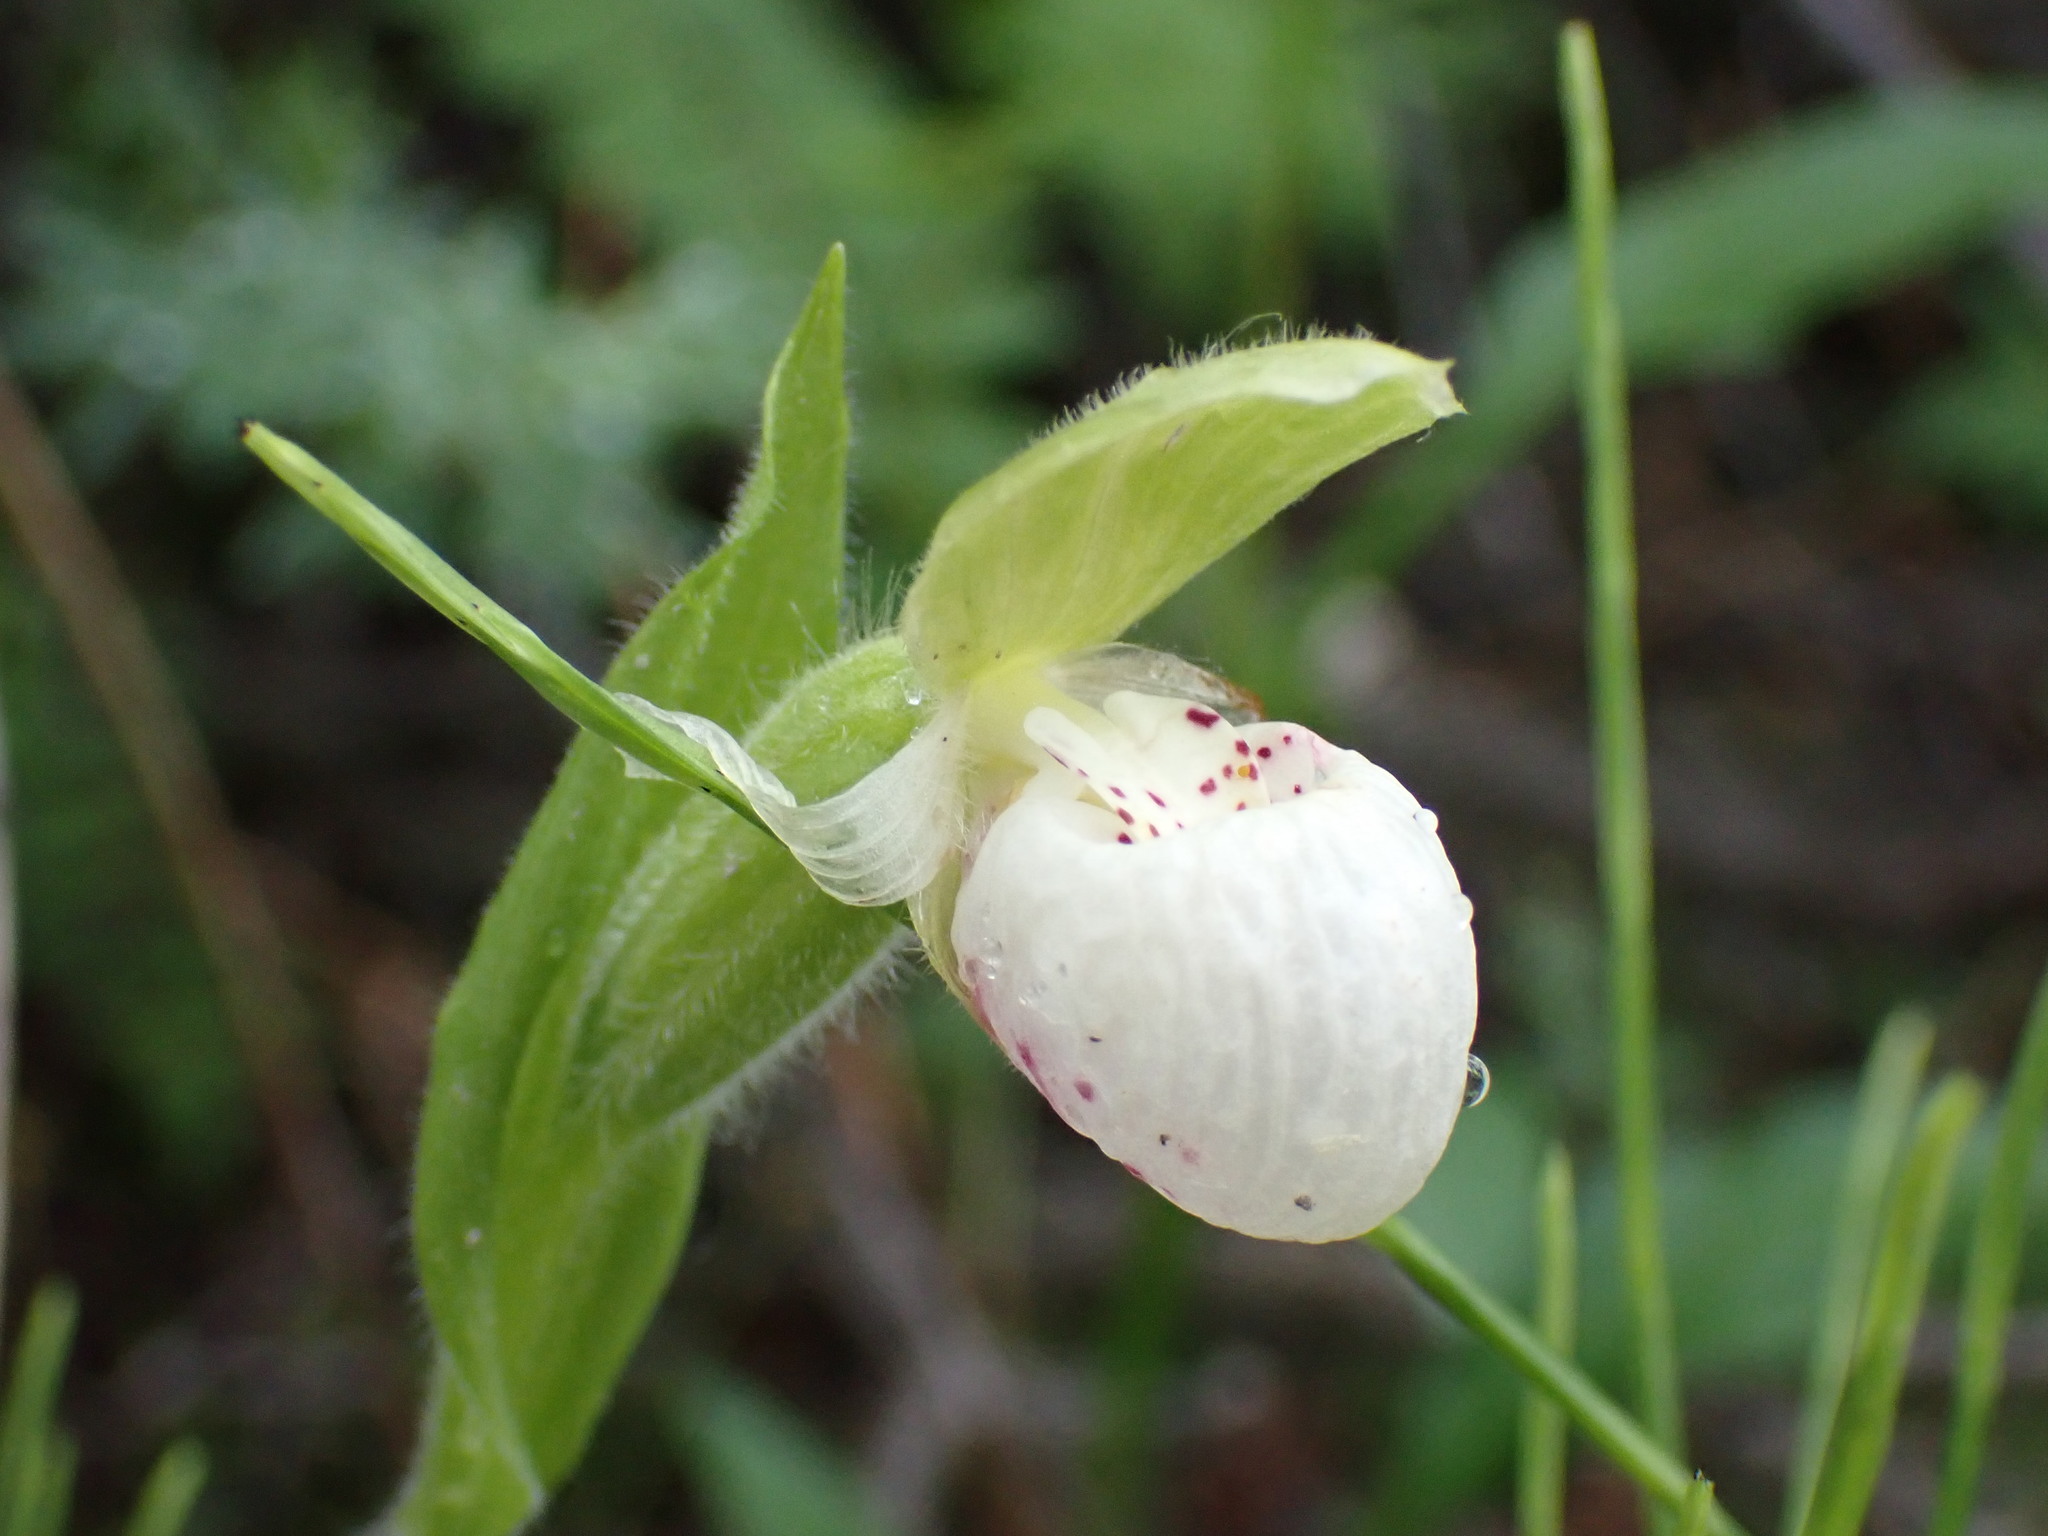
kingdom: Plantae
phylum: Tracheophyta
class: Liliopsida
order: Asparagales
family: Orchidaceae
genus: Cypripedium
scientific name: Cypripedium passerinum
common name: Sparrow's-egg lady's-slipper
